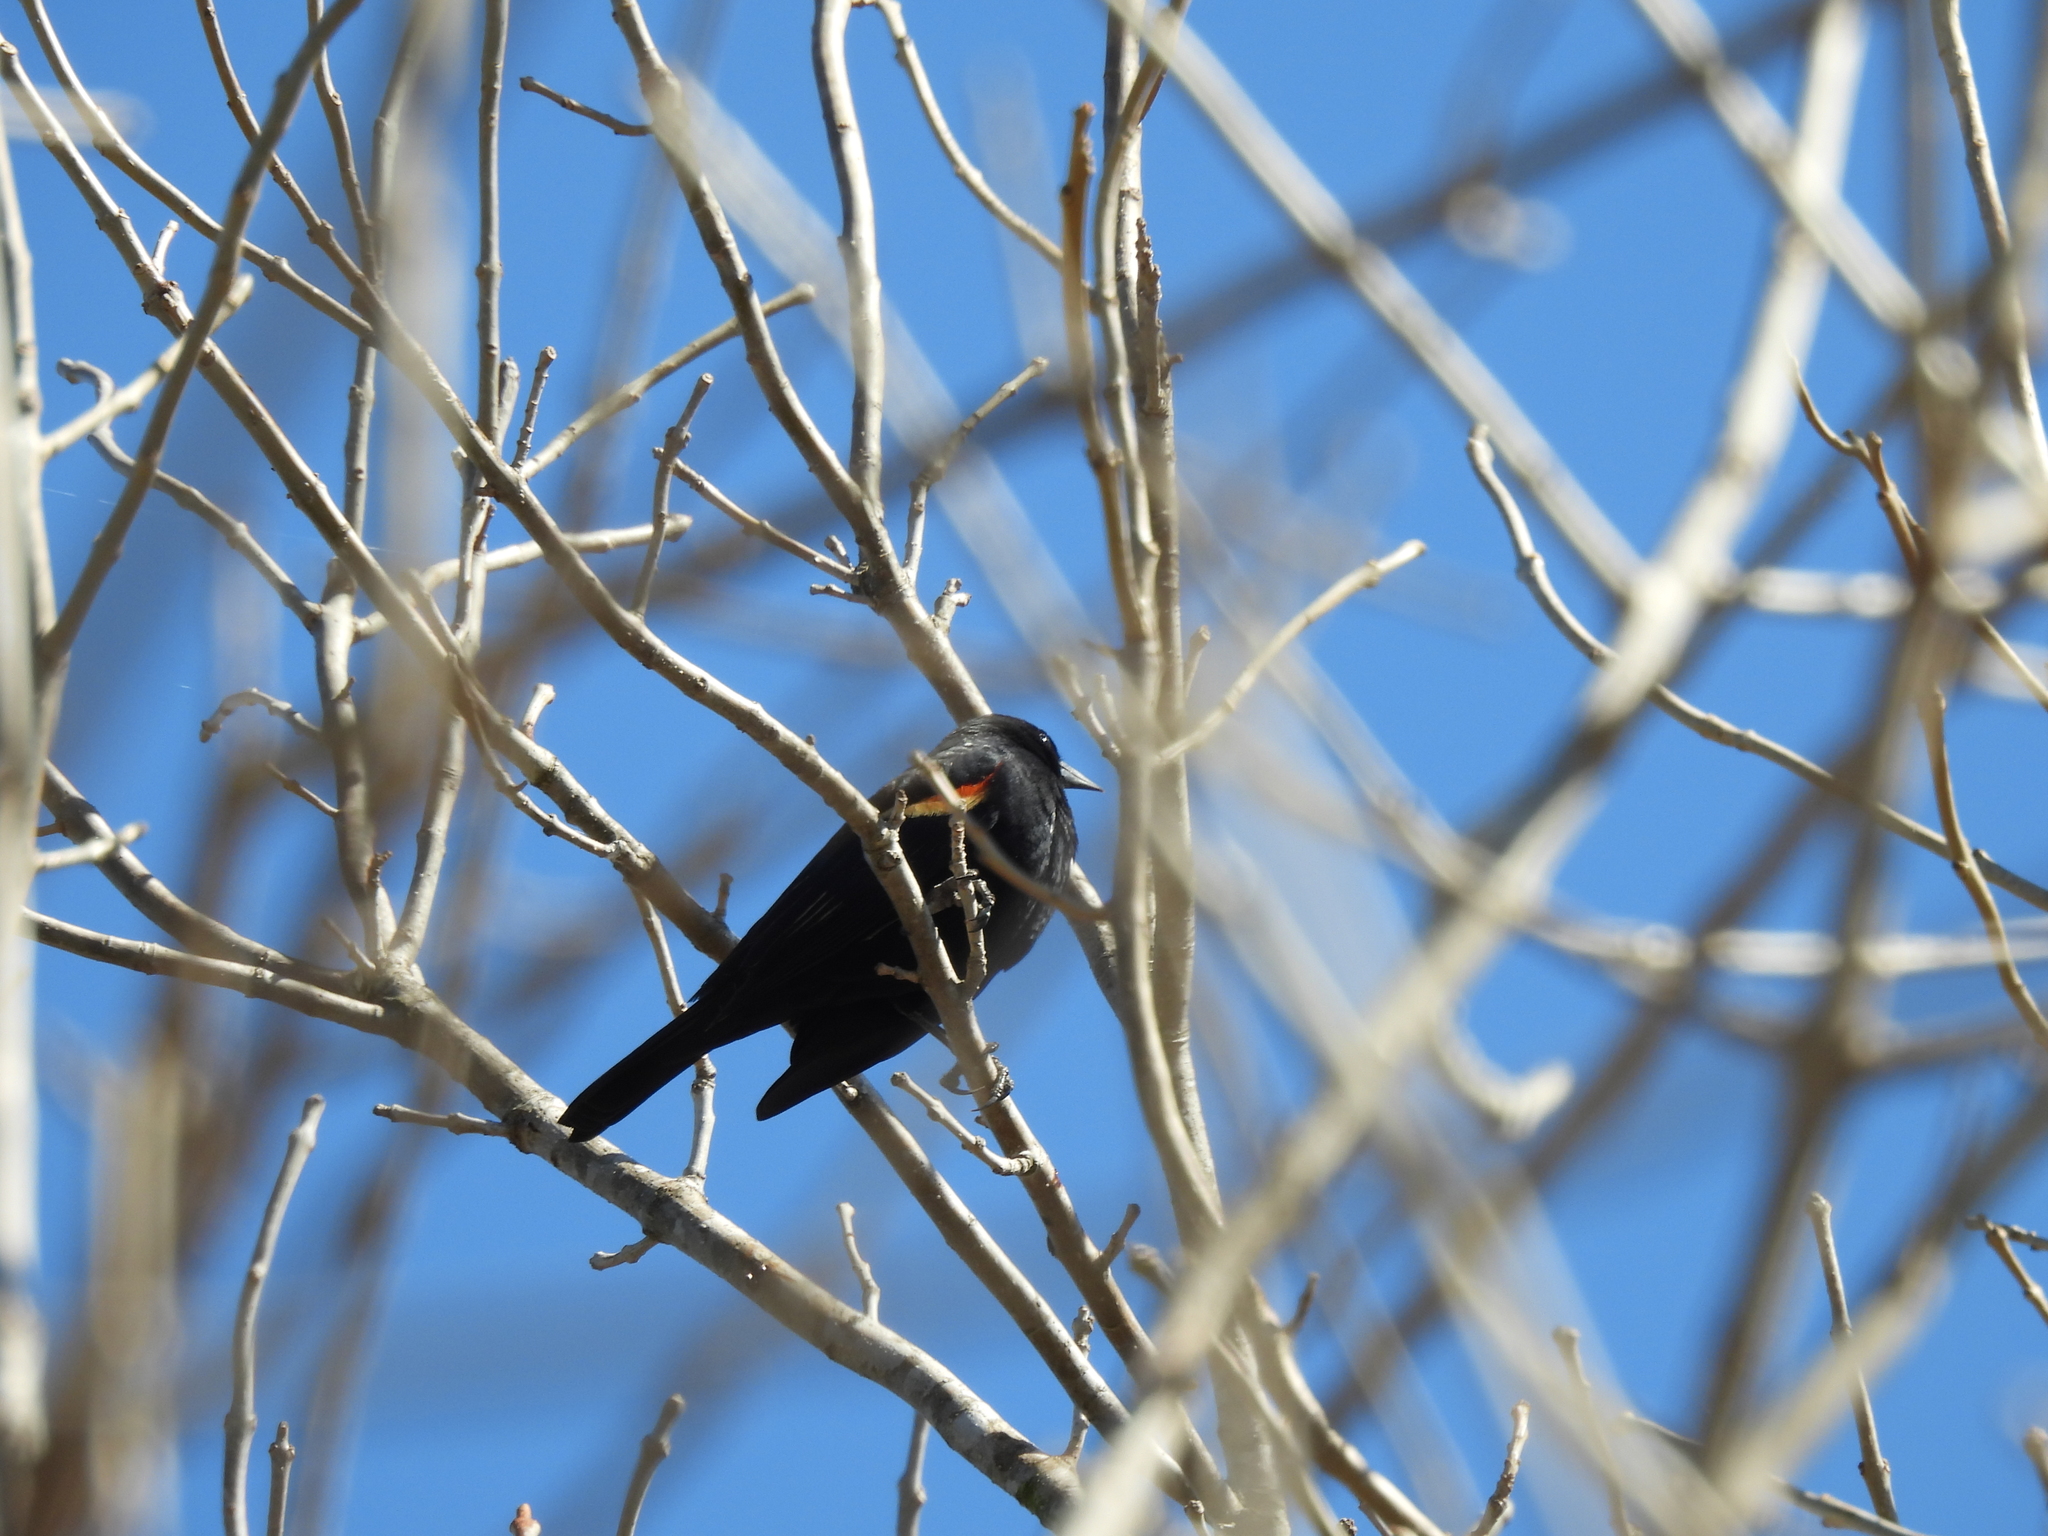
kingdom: Animalia
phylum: Chordata
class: Aves
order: Passeriformes
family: Icteridae
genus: Agelaius
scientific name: Agelaius phoeniceus
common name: Red-winged blackbird
